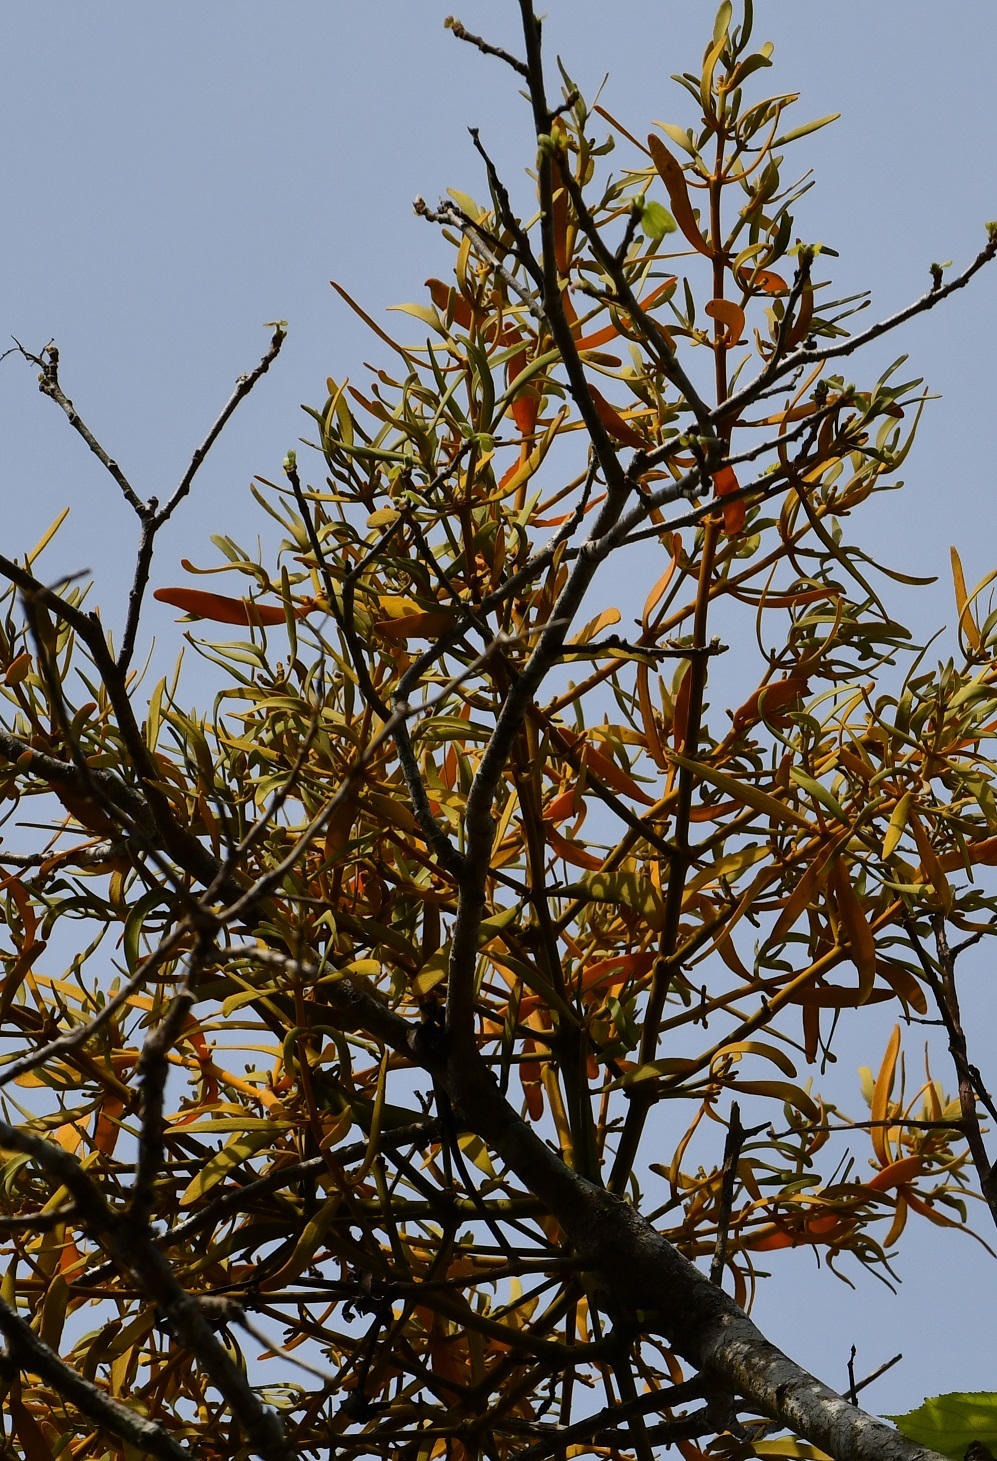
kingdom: Plantae
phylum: Tracheophyta
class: Magnoliopsida
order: Santalales
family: Viscaceae
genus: Phoradendron
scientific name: Phoradendron longifolium
